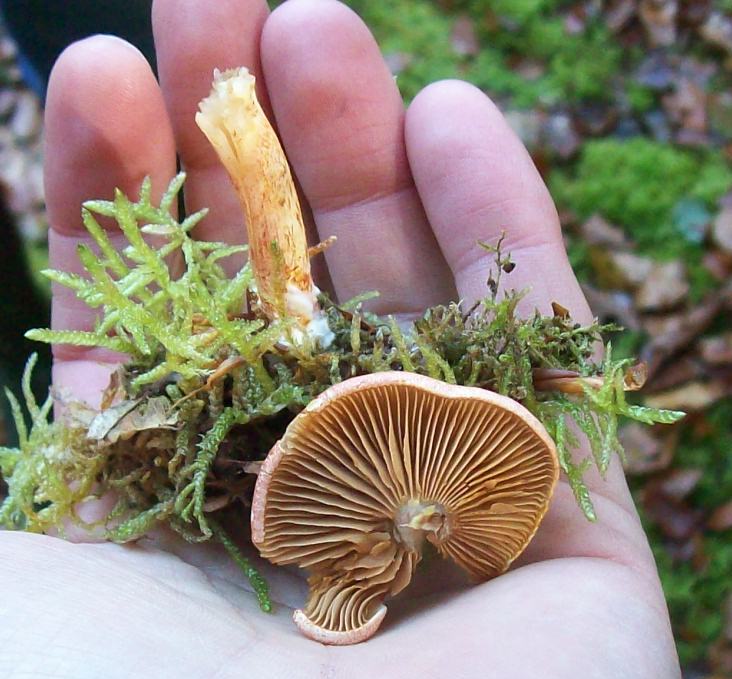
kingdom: Fungi
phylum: Basidiomycota
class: Agaricomycetes
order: Agaricales
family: Cortinariaceae
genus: Cortinarius
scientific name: Cortinarius bolaris
